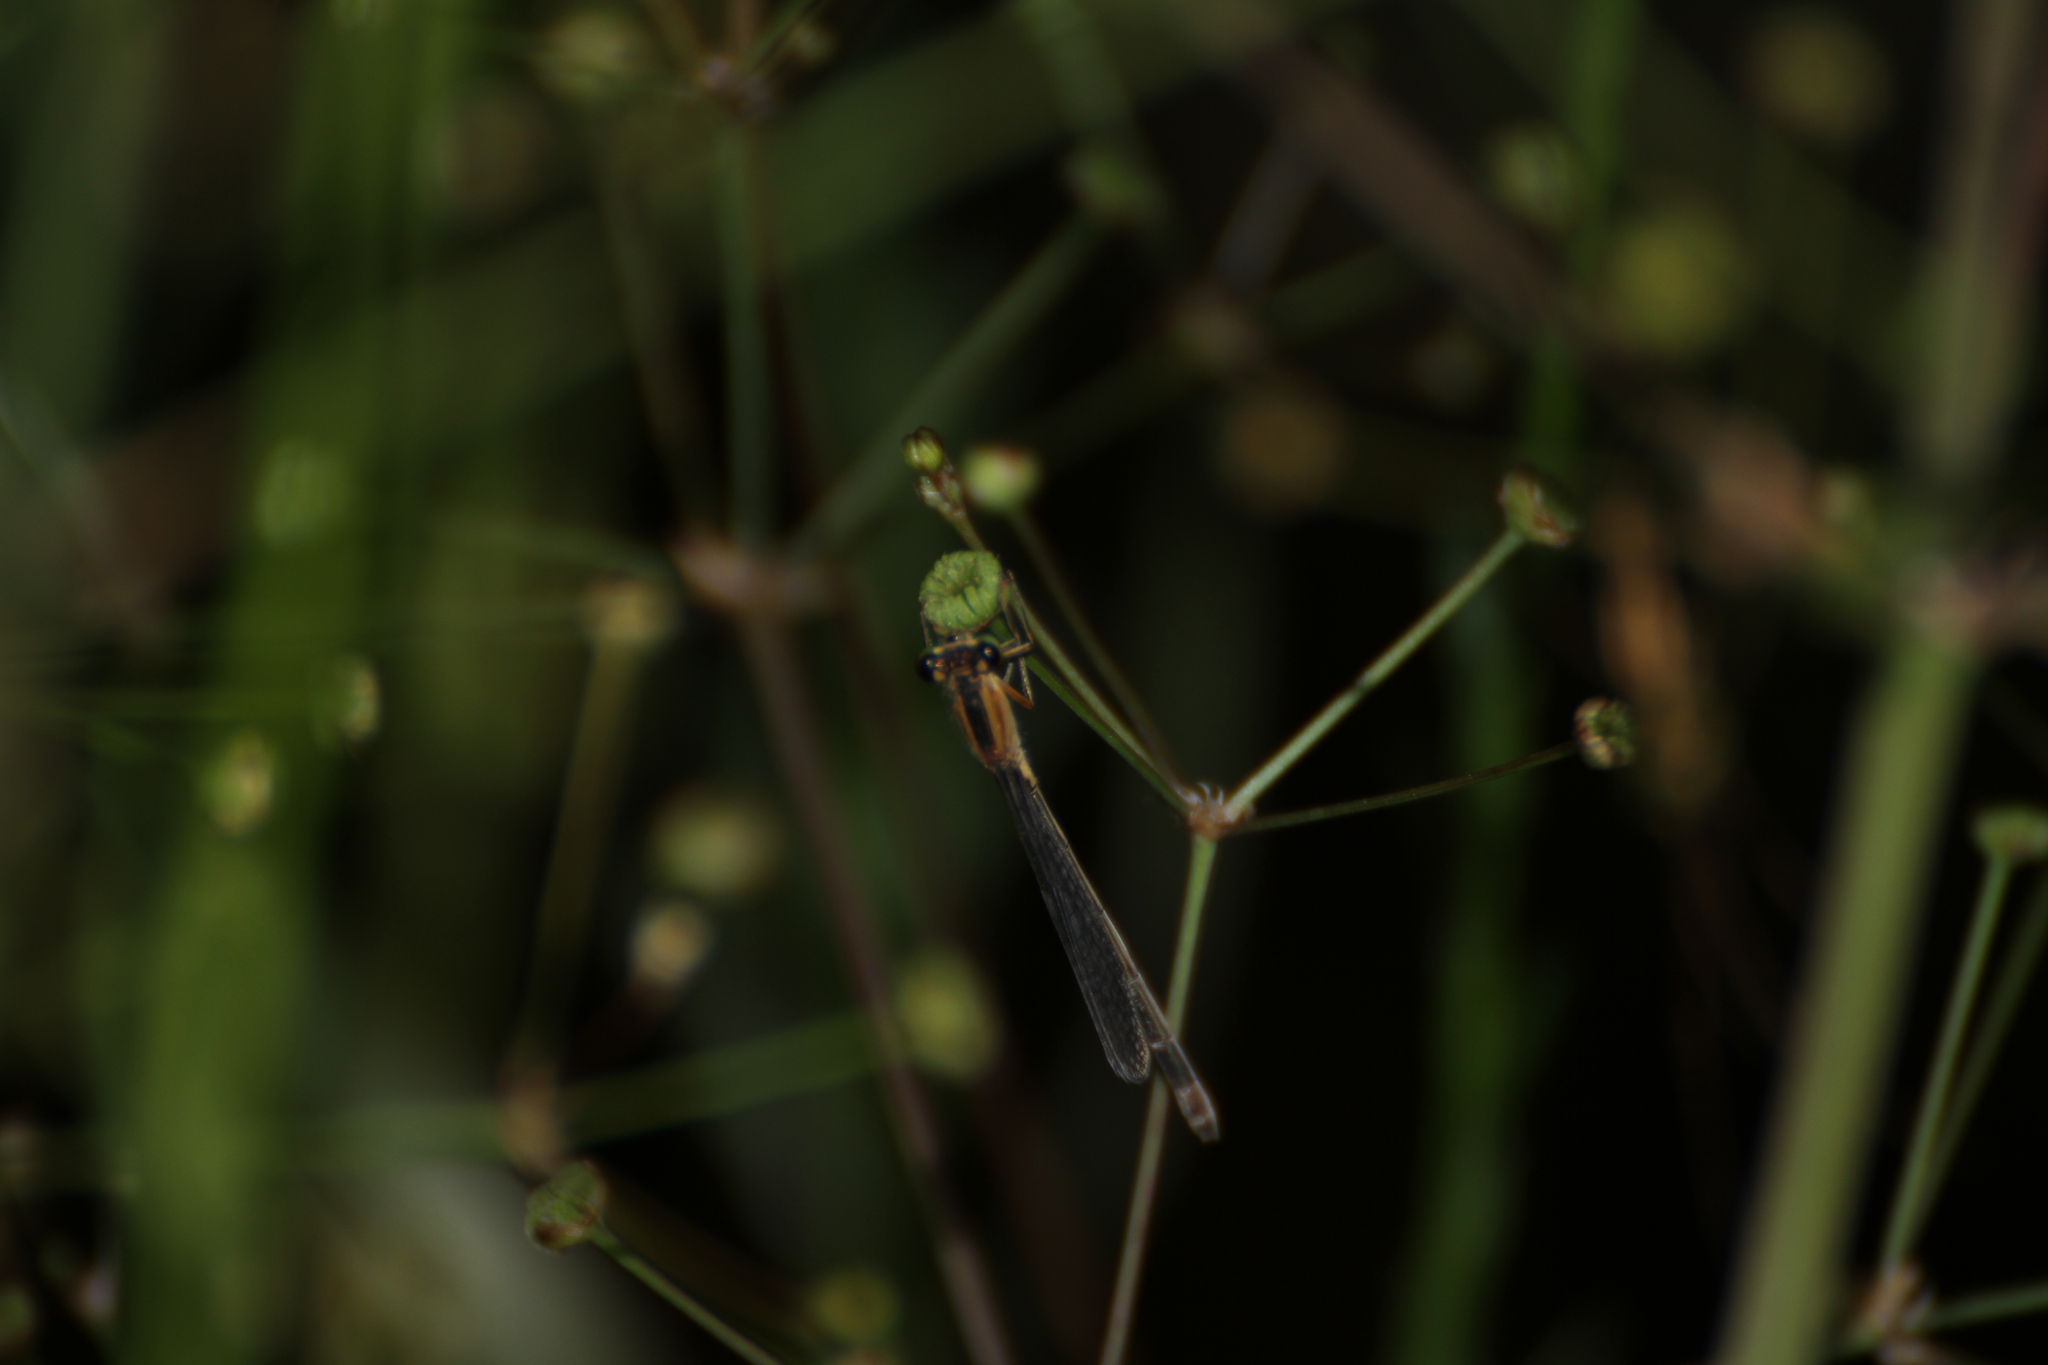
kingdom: Animalia
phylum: Arthropoda
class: Insecta
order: Odonata
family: Coenagrionidae
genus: Ischnura
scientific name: Ischnura elegans
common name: Blue-tailed damselfly
